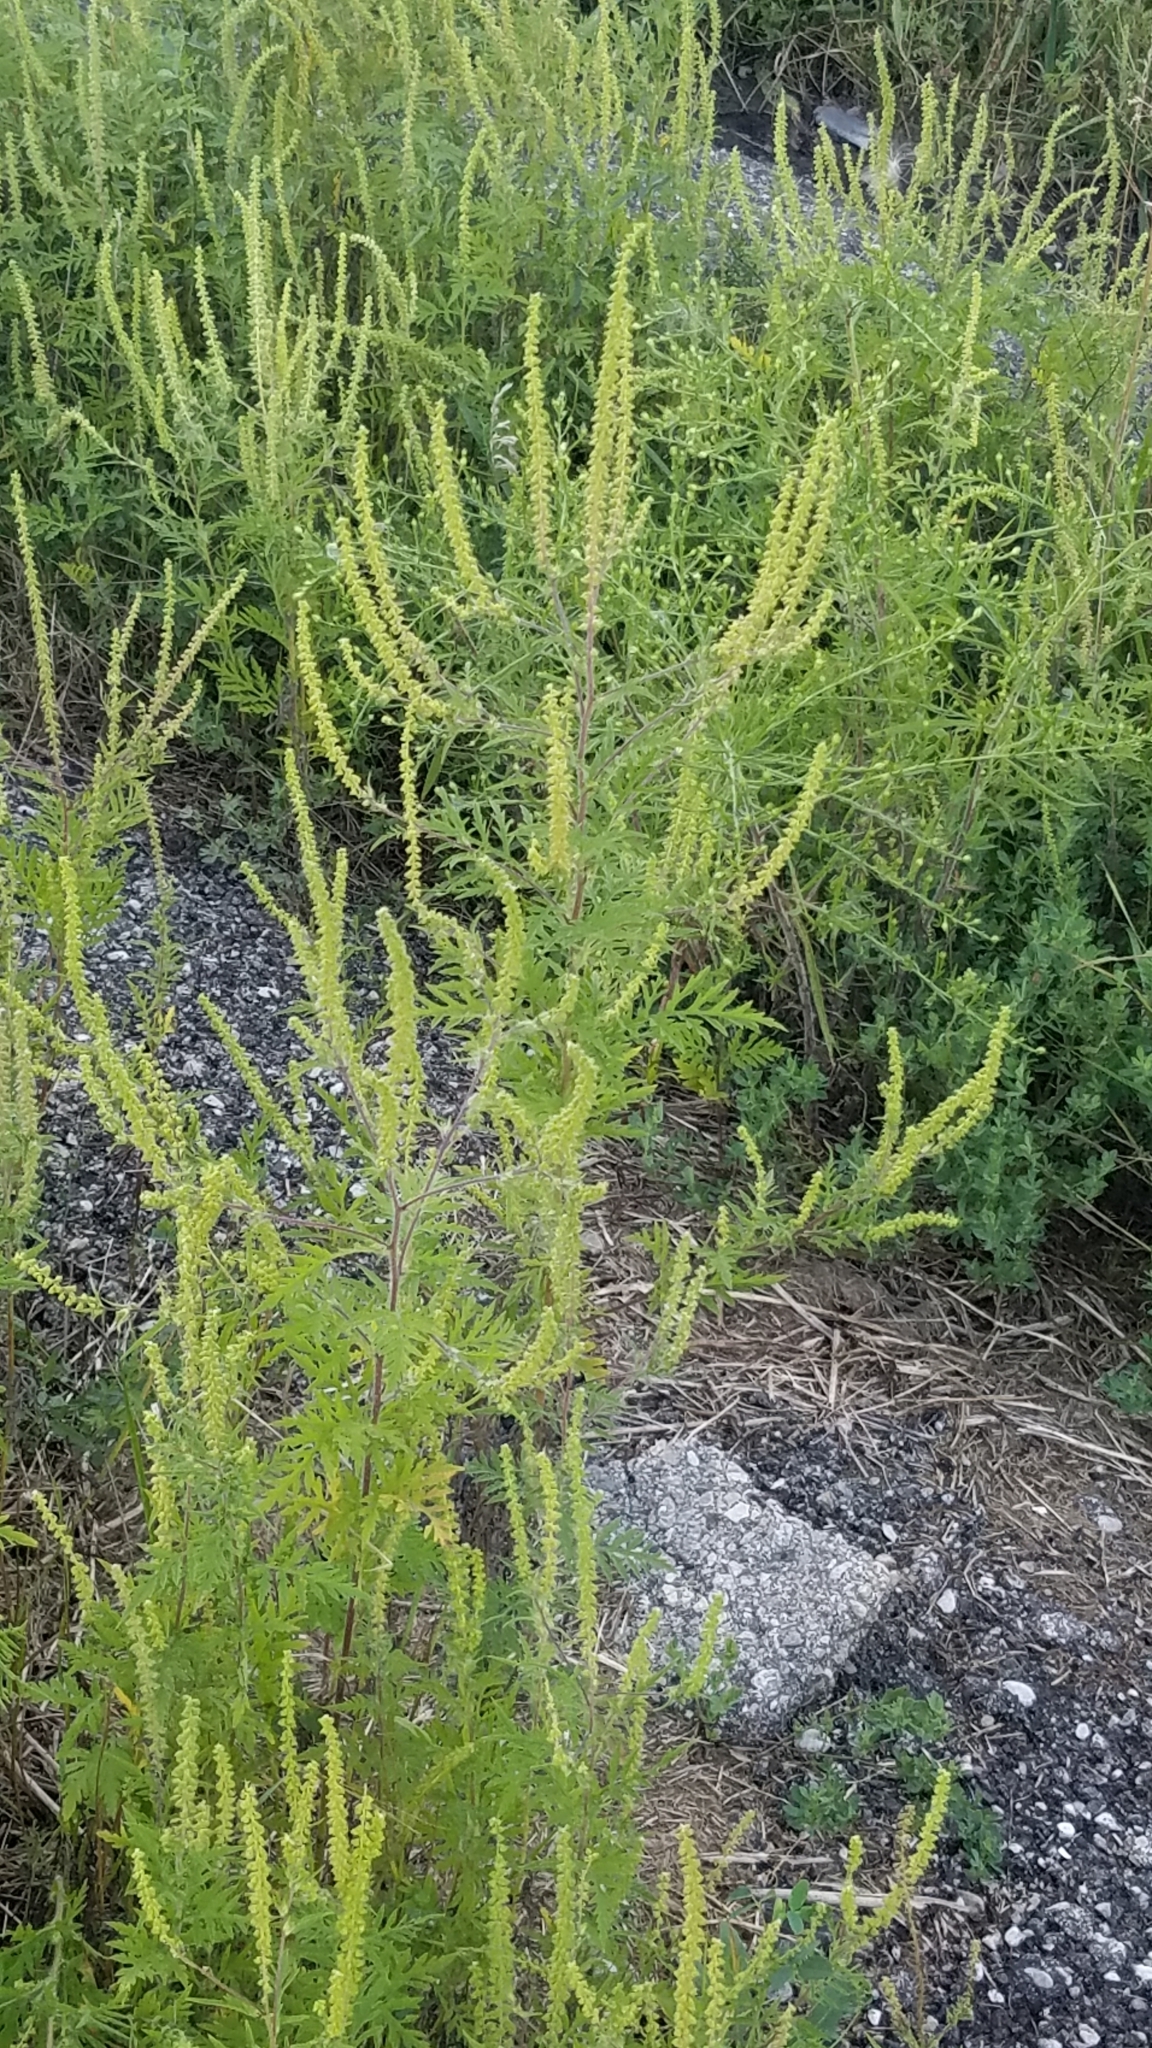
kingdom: Plantae
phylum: Tracheophyta
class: Magnoliopsida
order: Asterales
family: Asteraceae
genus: Ambrosia
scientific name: Ambrosia artemisiifolia
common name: Annual ragweed
